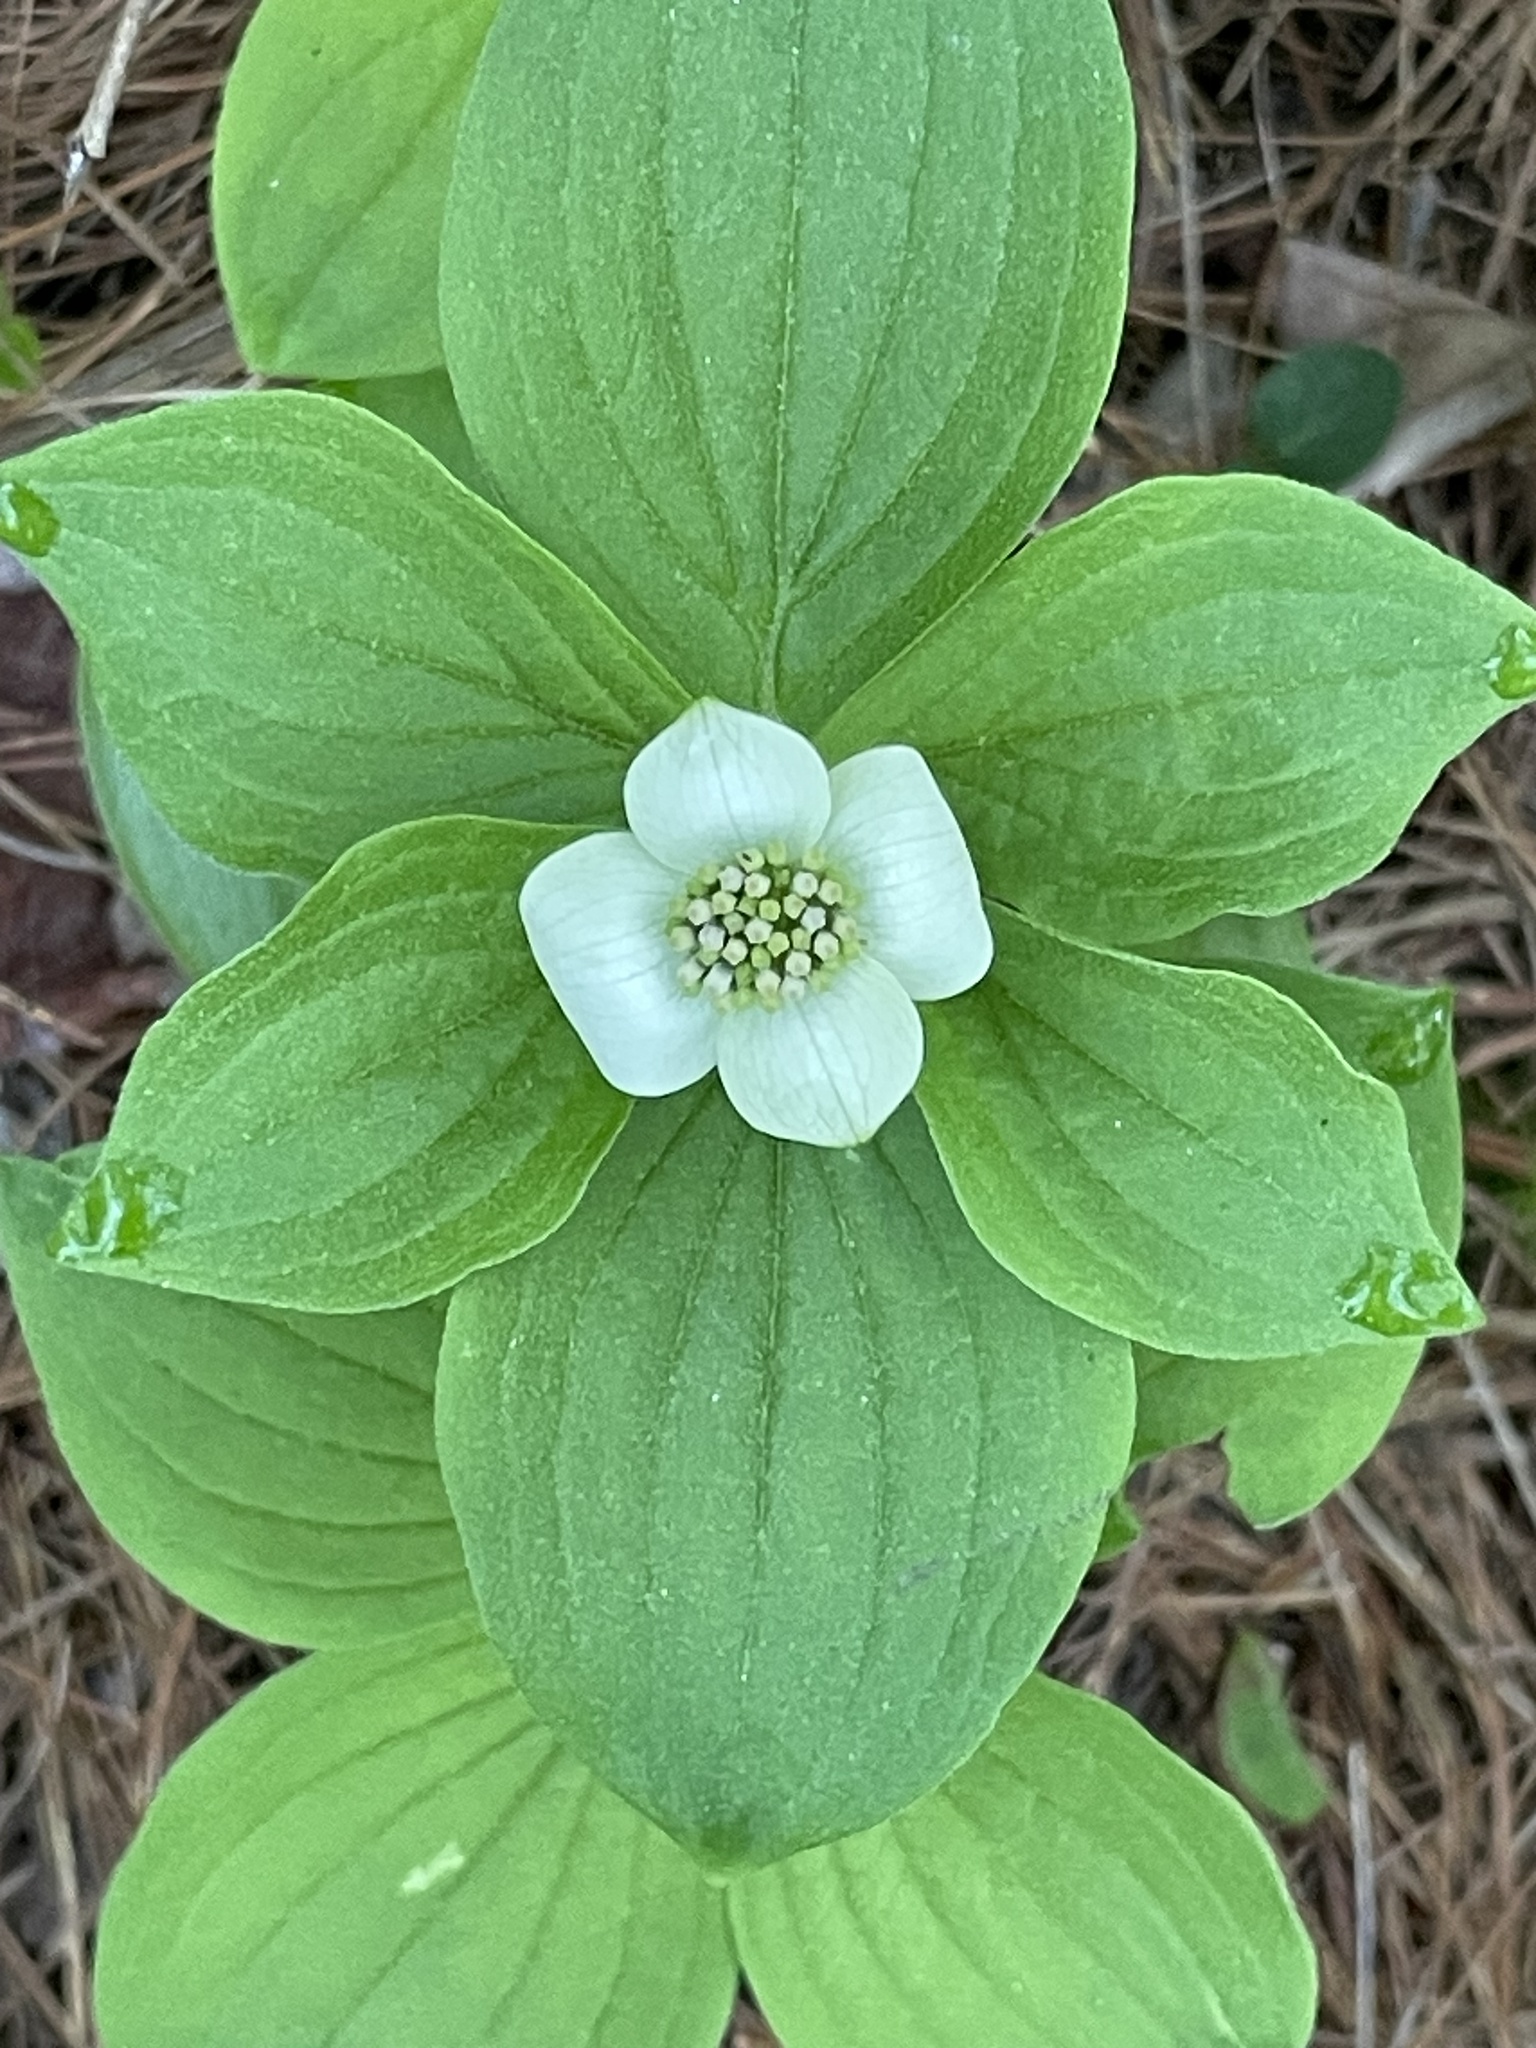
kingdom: Plantae
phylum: Tracheophyta
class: Magnoliopsida
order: Cornales
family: Cornaceae
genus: Cornus
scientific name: Cornus canadensis
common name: Creeping dogwood
